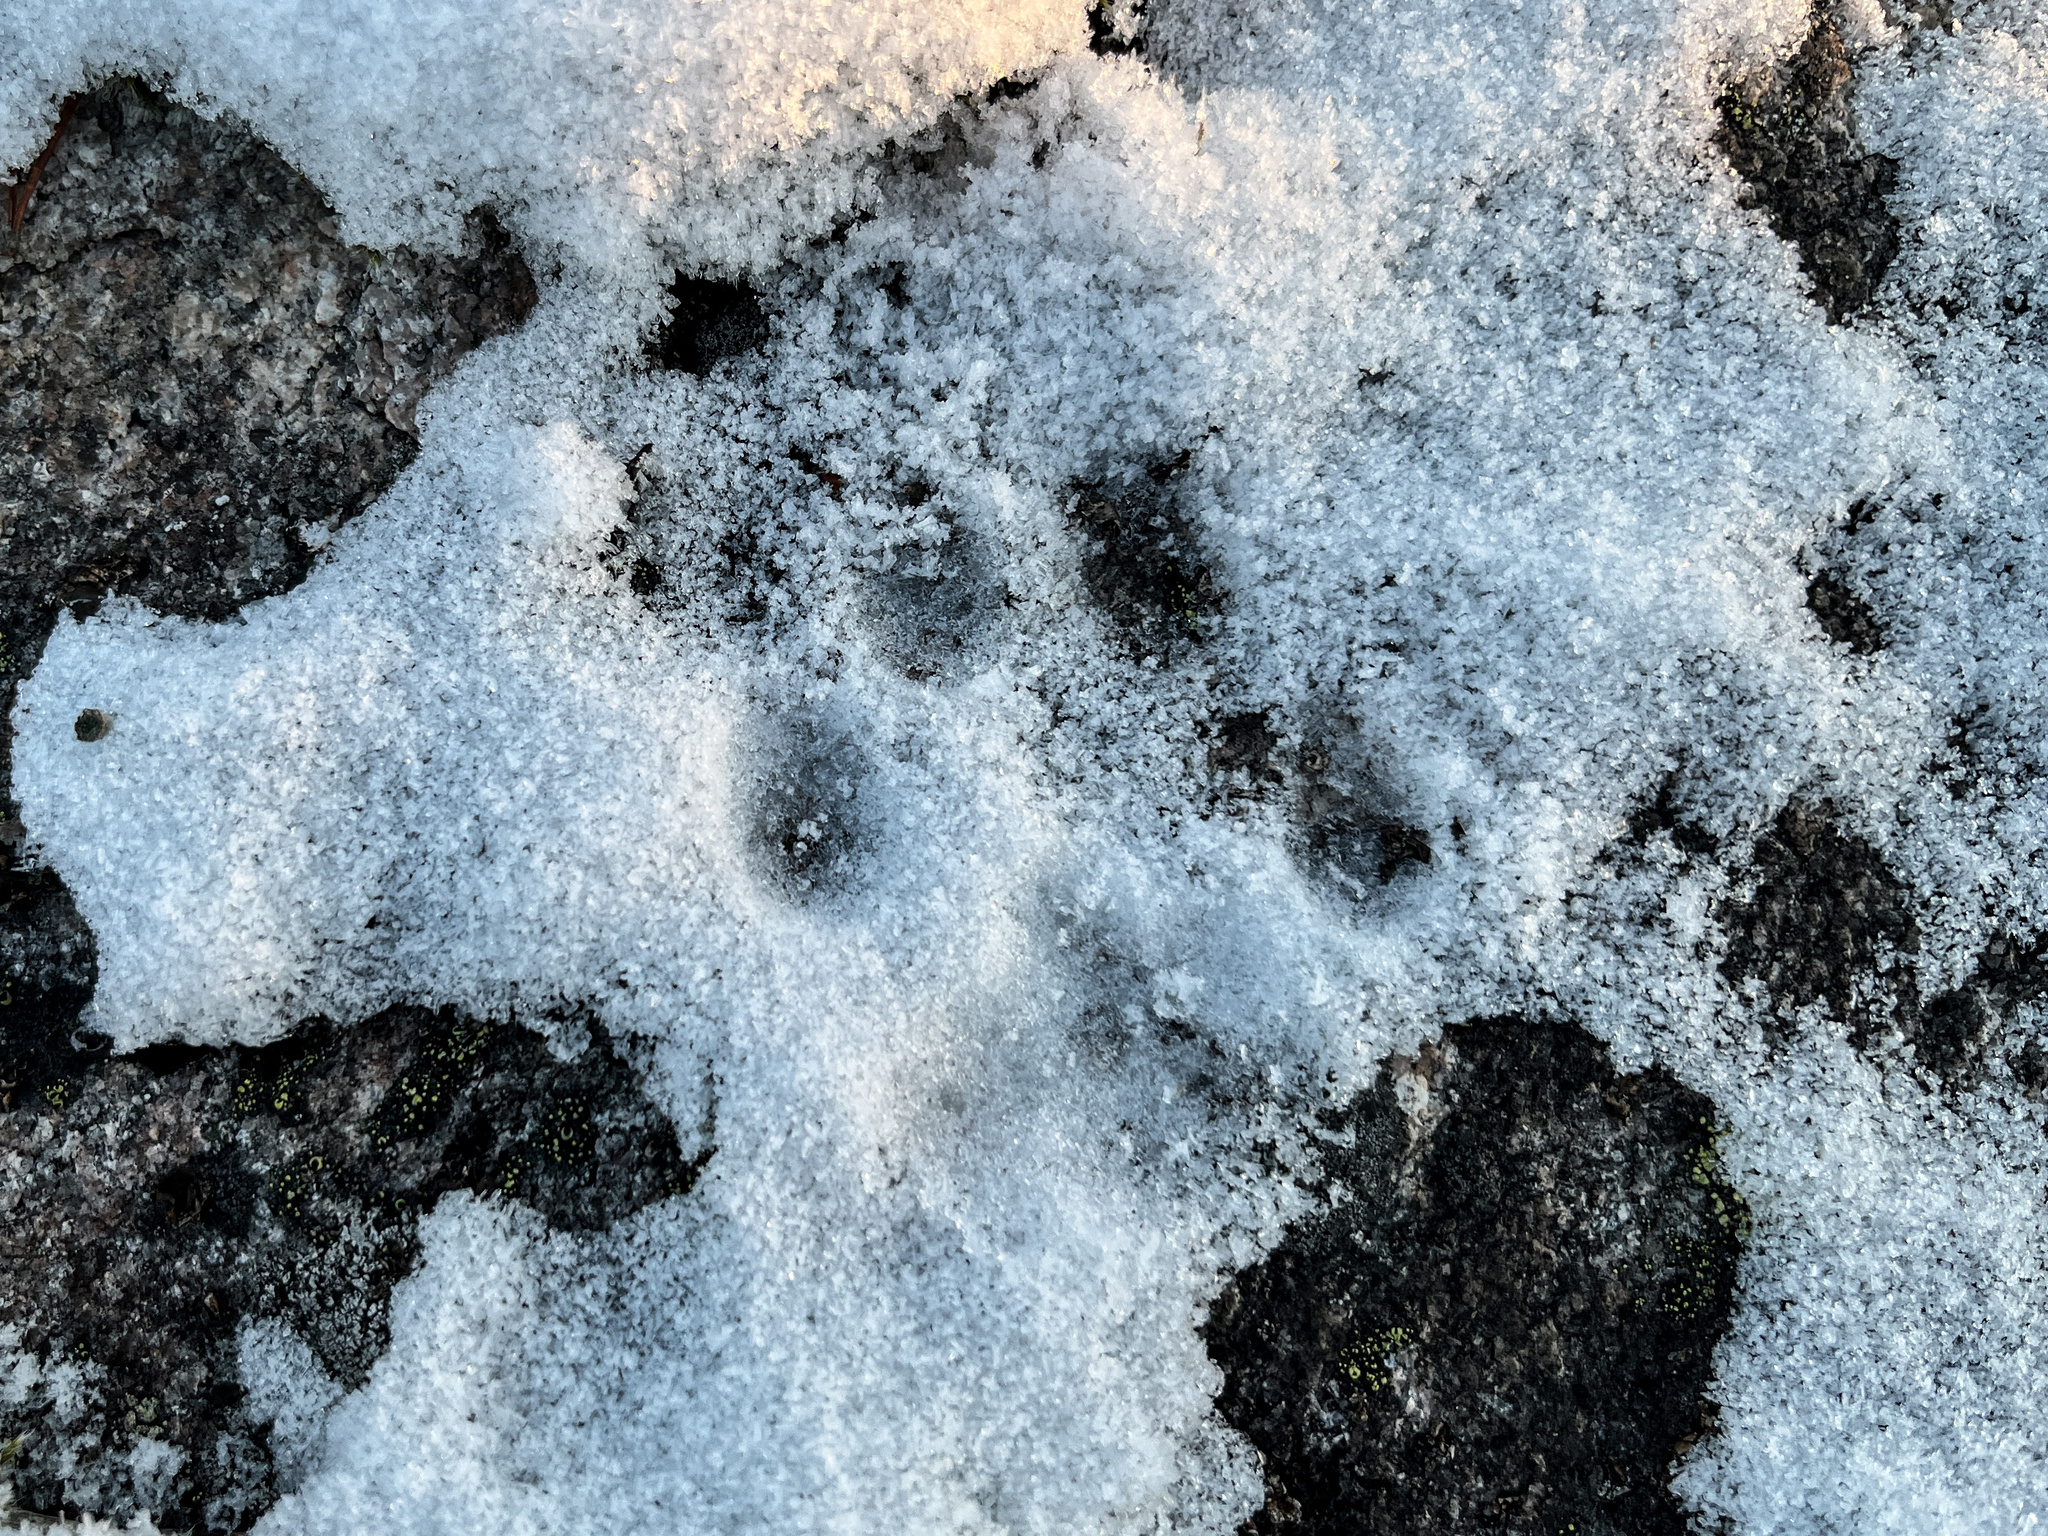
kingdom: Animalia
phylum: Chordata
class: Mammalia
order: Carnivora
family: Felidae
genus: Lynx
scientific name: Lynx lynx
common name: Eurasian lynx
